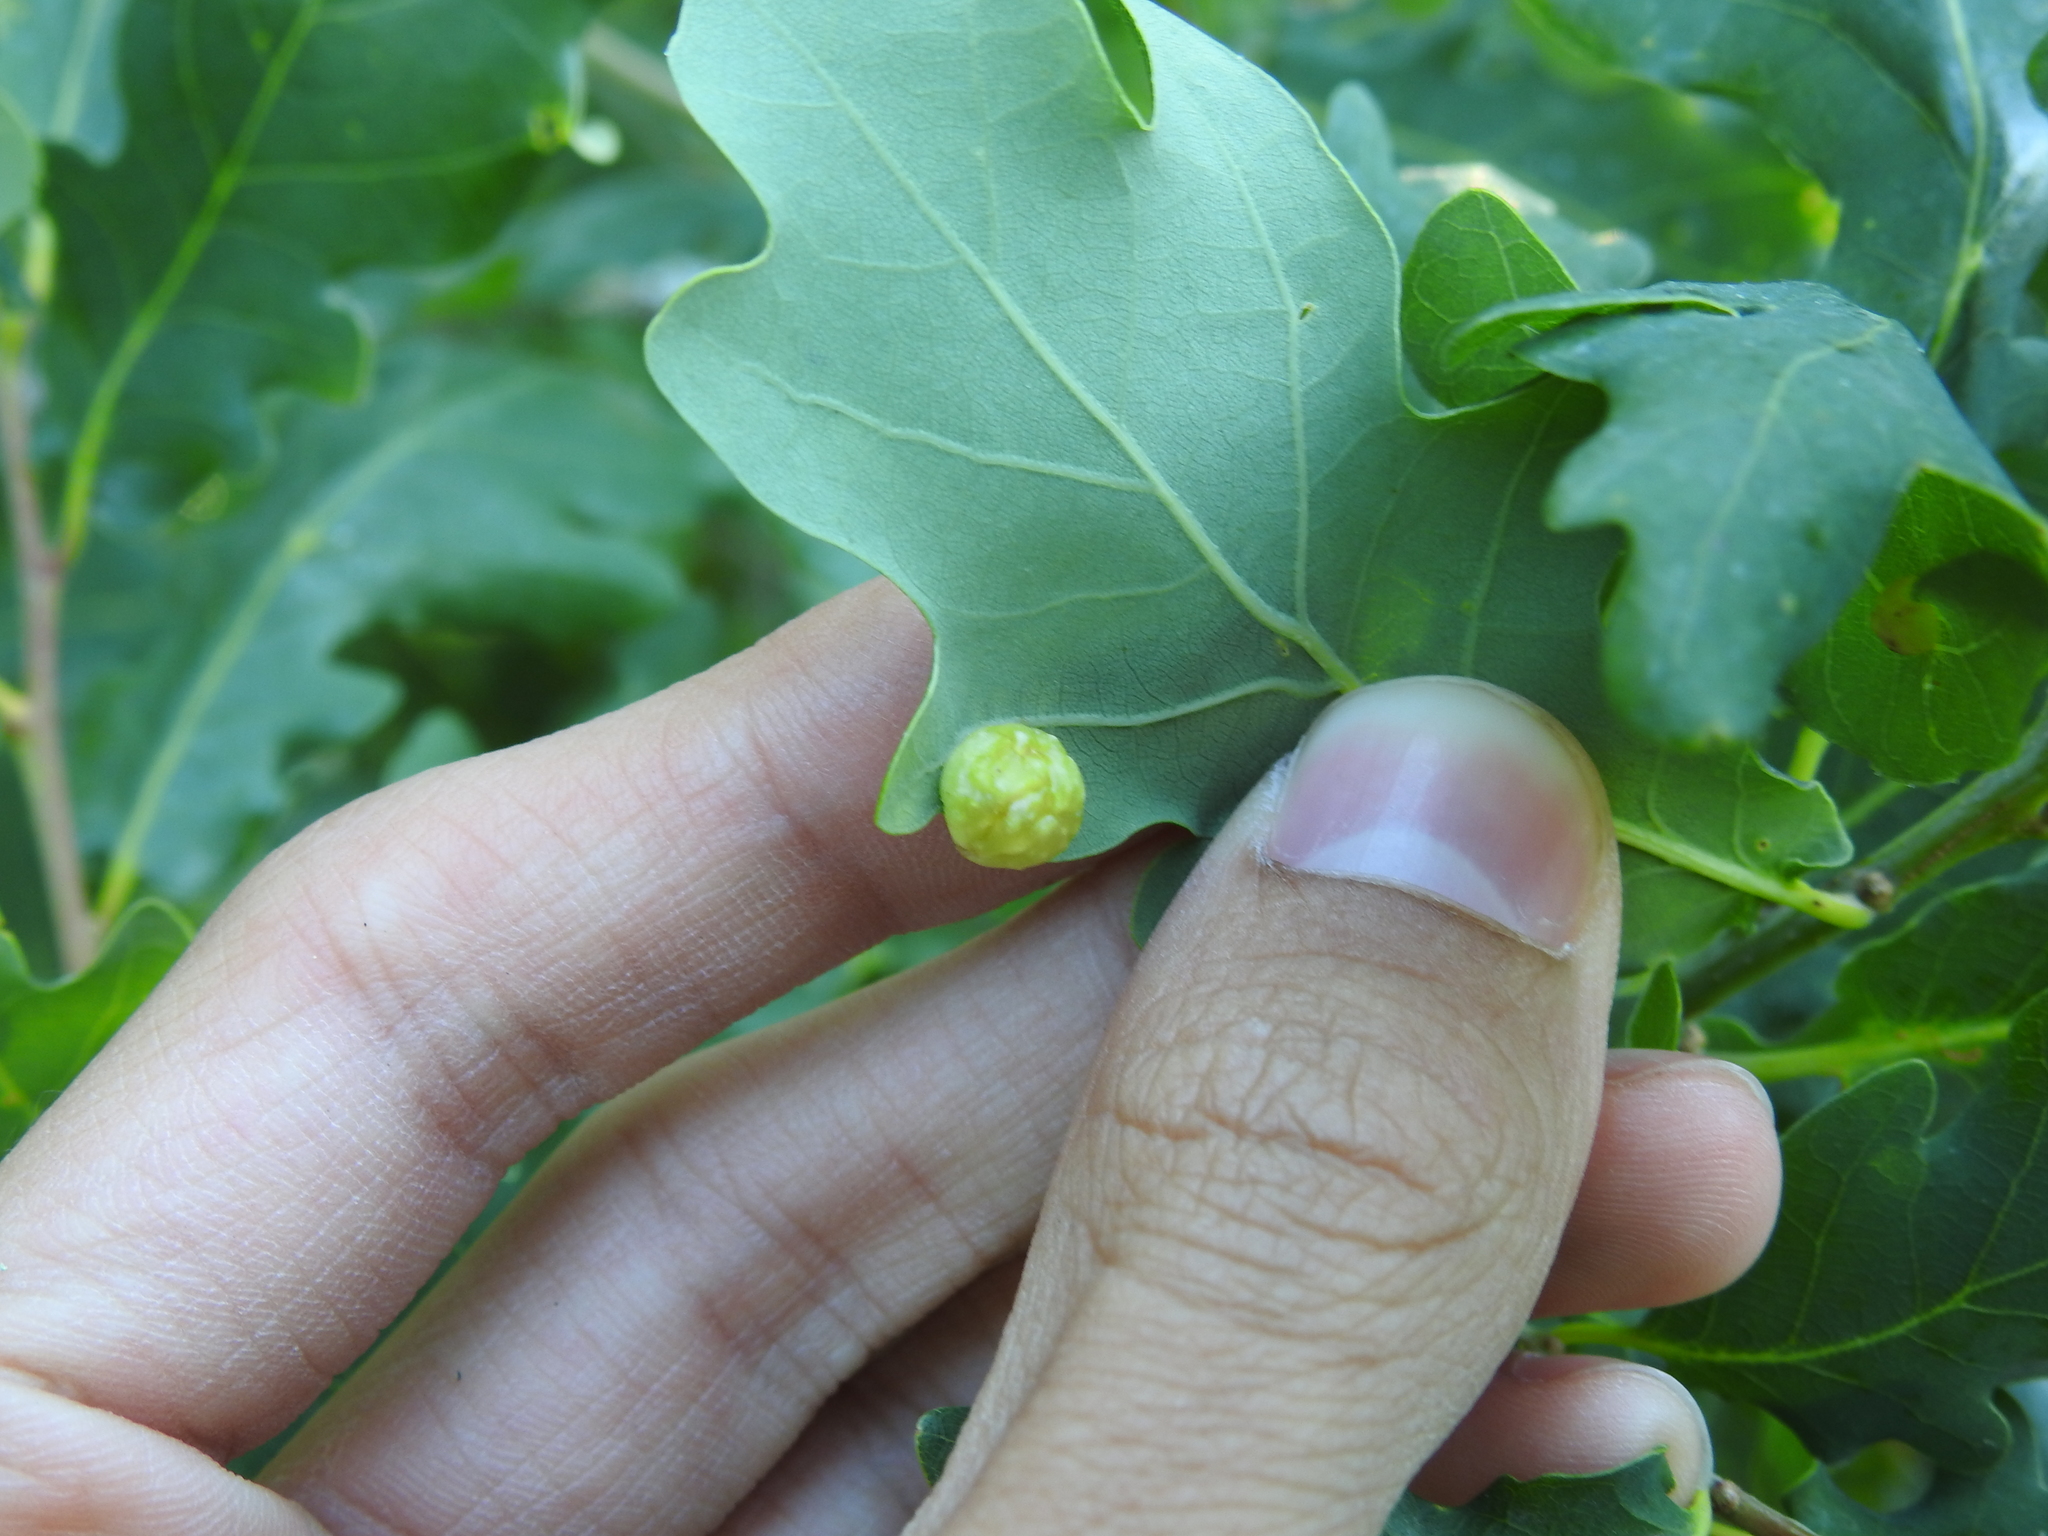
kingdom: Animalia
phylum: Arthropoda
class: Insecta
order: Hymenoptera
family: Cynipidae
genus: Neuroterus
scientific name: Neuroterus quercusbaccarum
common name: Common spangle gall
